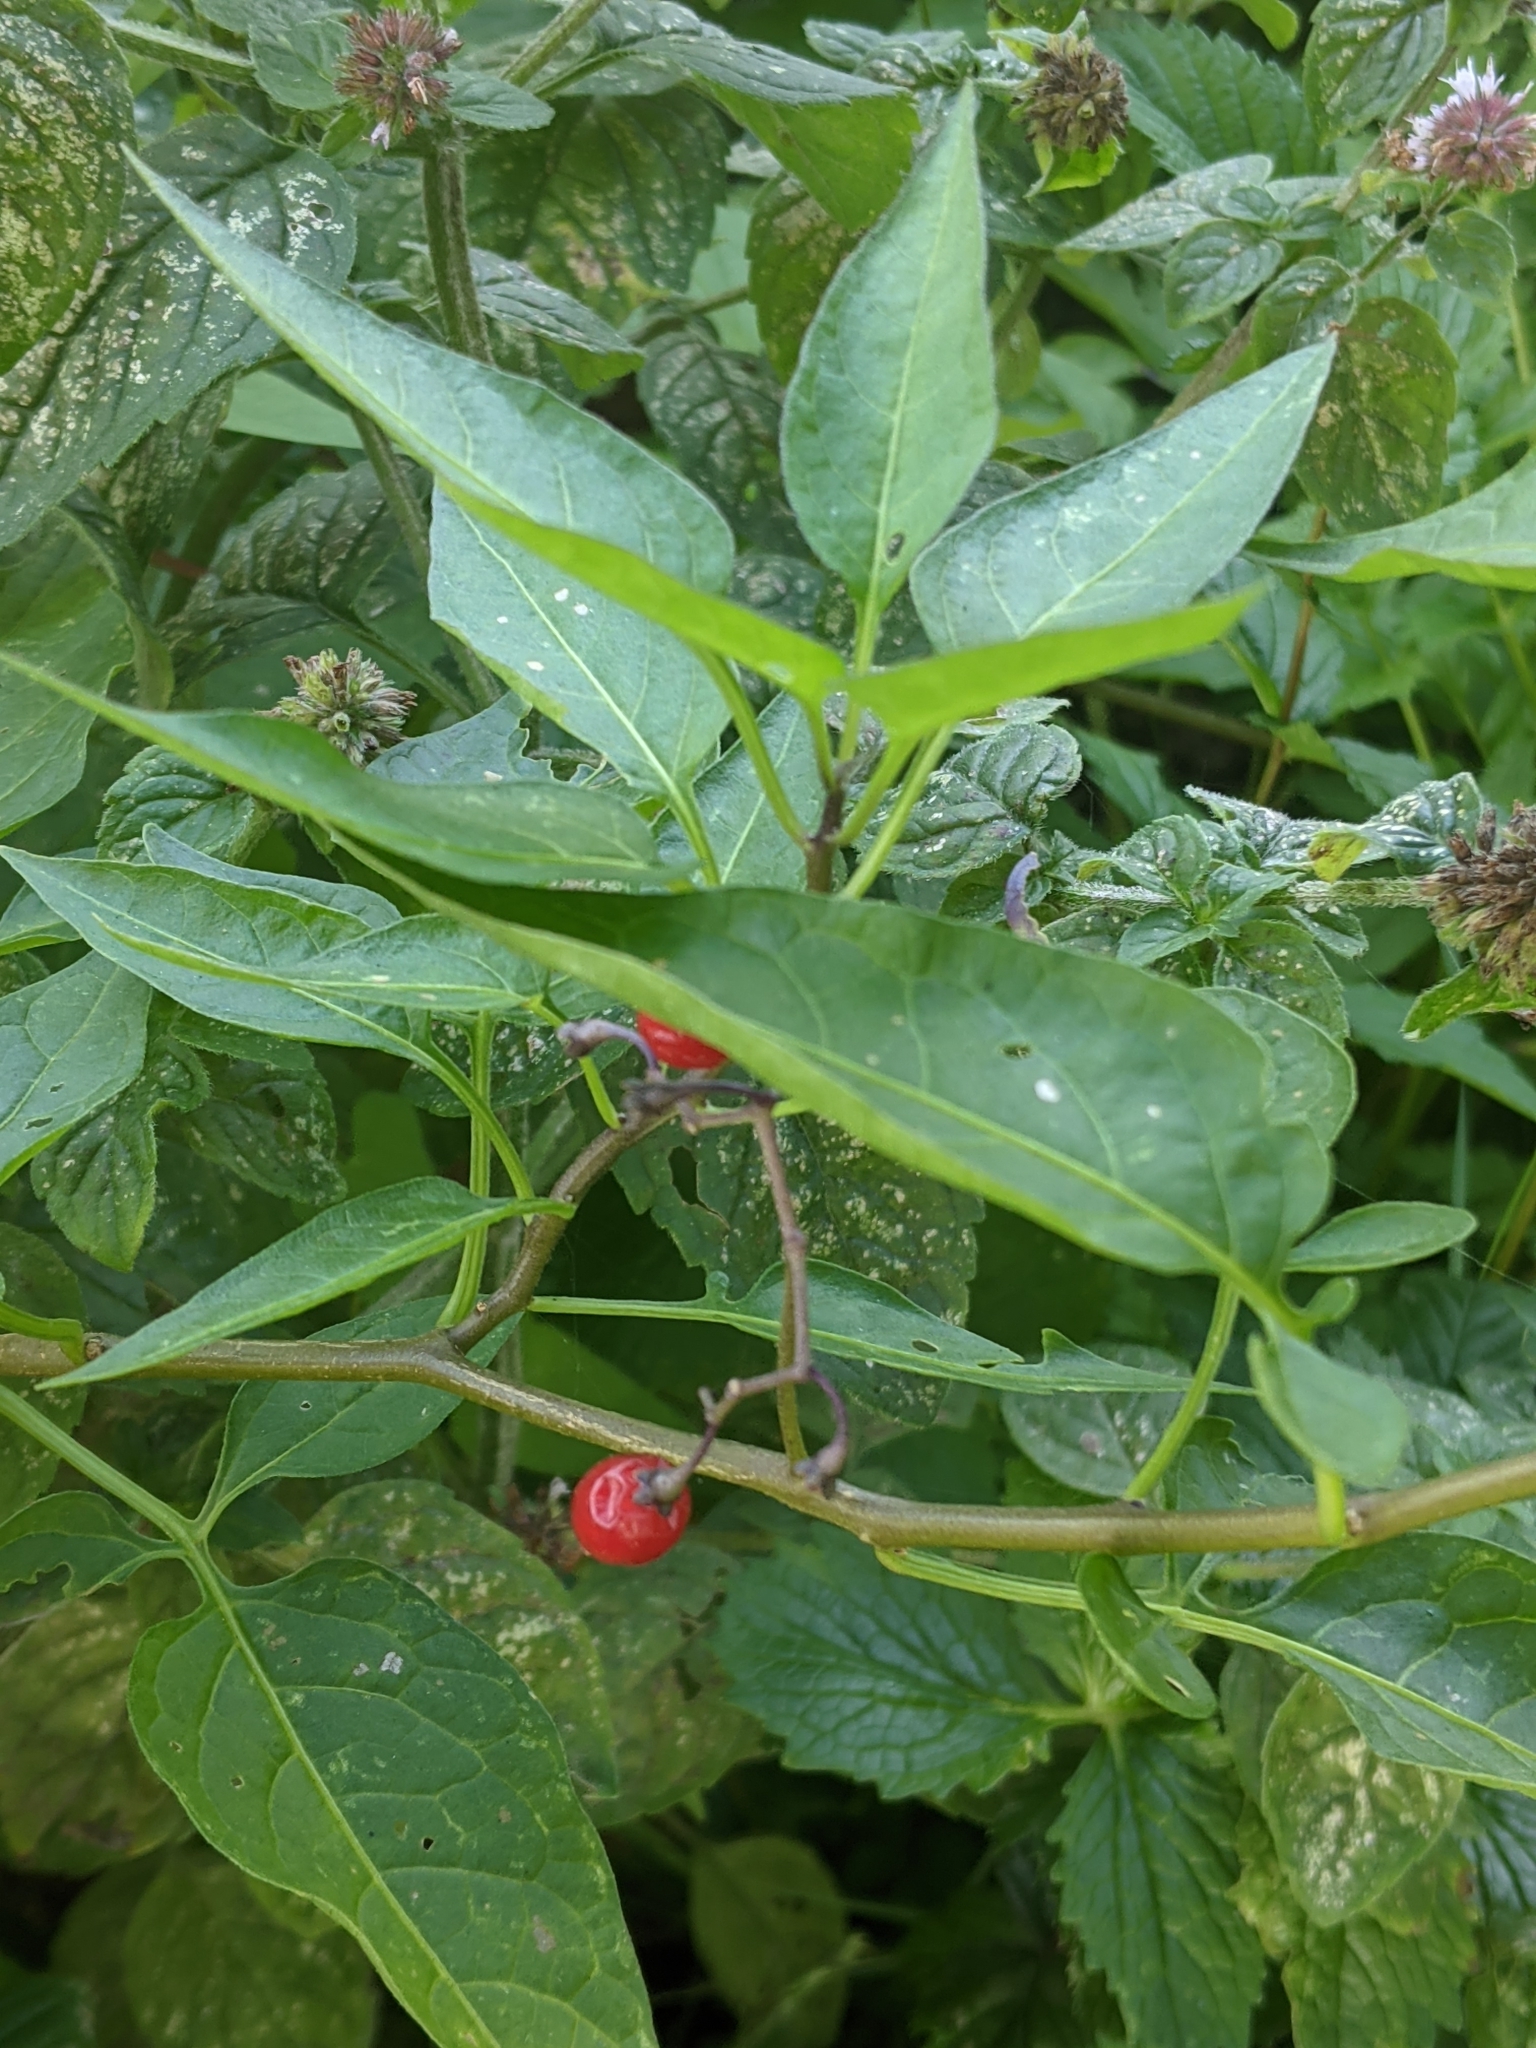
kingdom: Plantae
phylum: Tracheophyta
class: Magnoliopsida
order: Solanales
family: Solanaceae
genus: Solanum
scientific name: Solanum dulcamara
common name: Climbing nightshade
